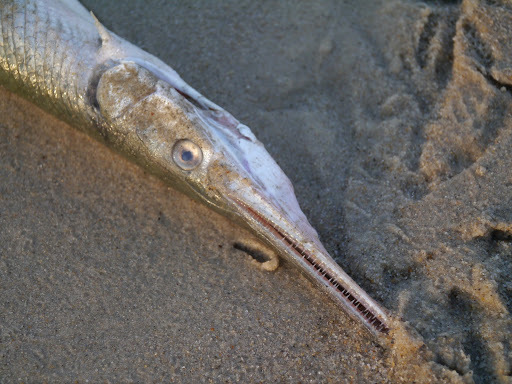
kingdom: Animalia
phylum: Chordata
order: Lepisosteiformes
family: Lepisosteidae
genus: Lepisosteus
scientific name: Lepisosteus osseus
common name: Longnose gar
